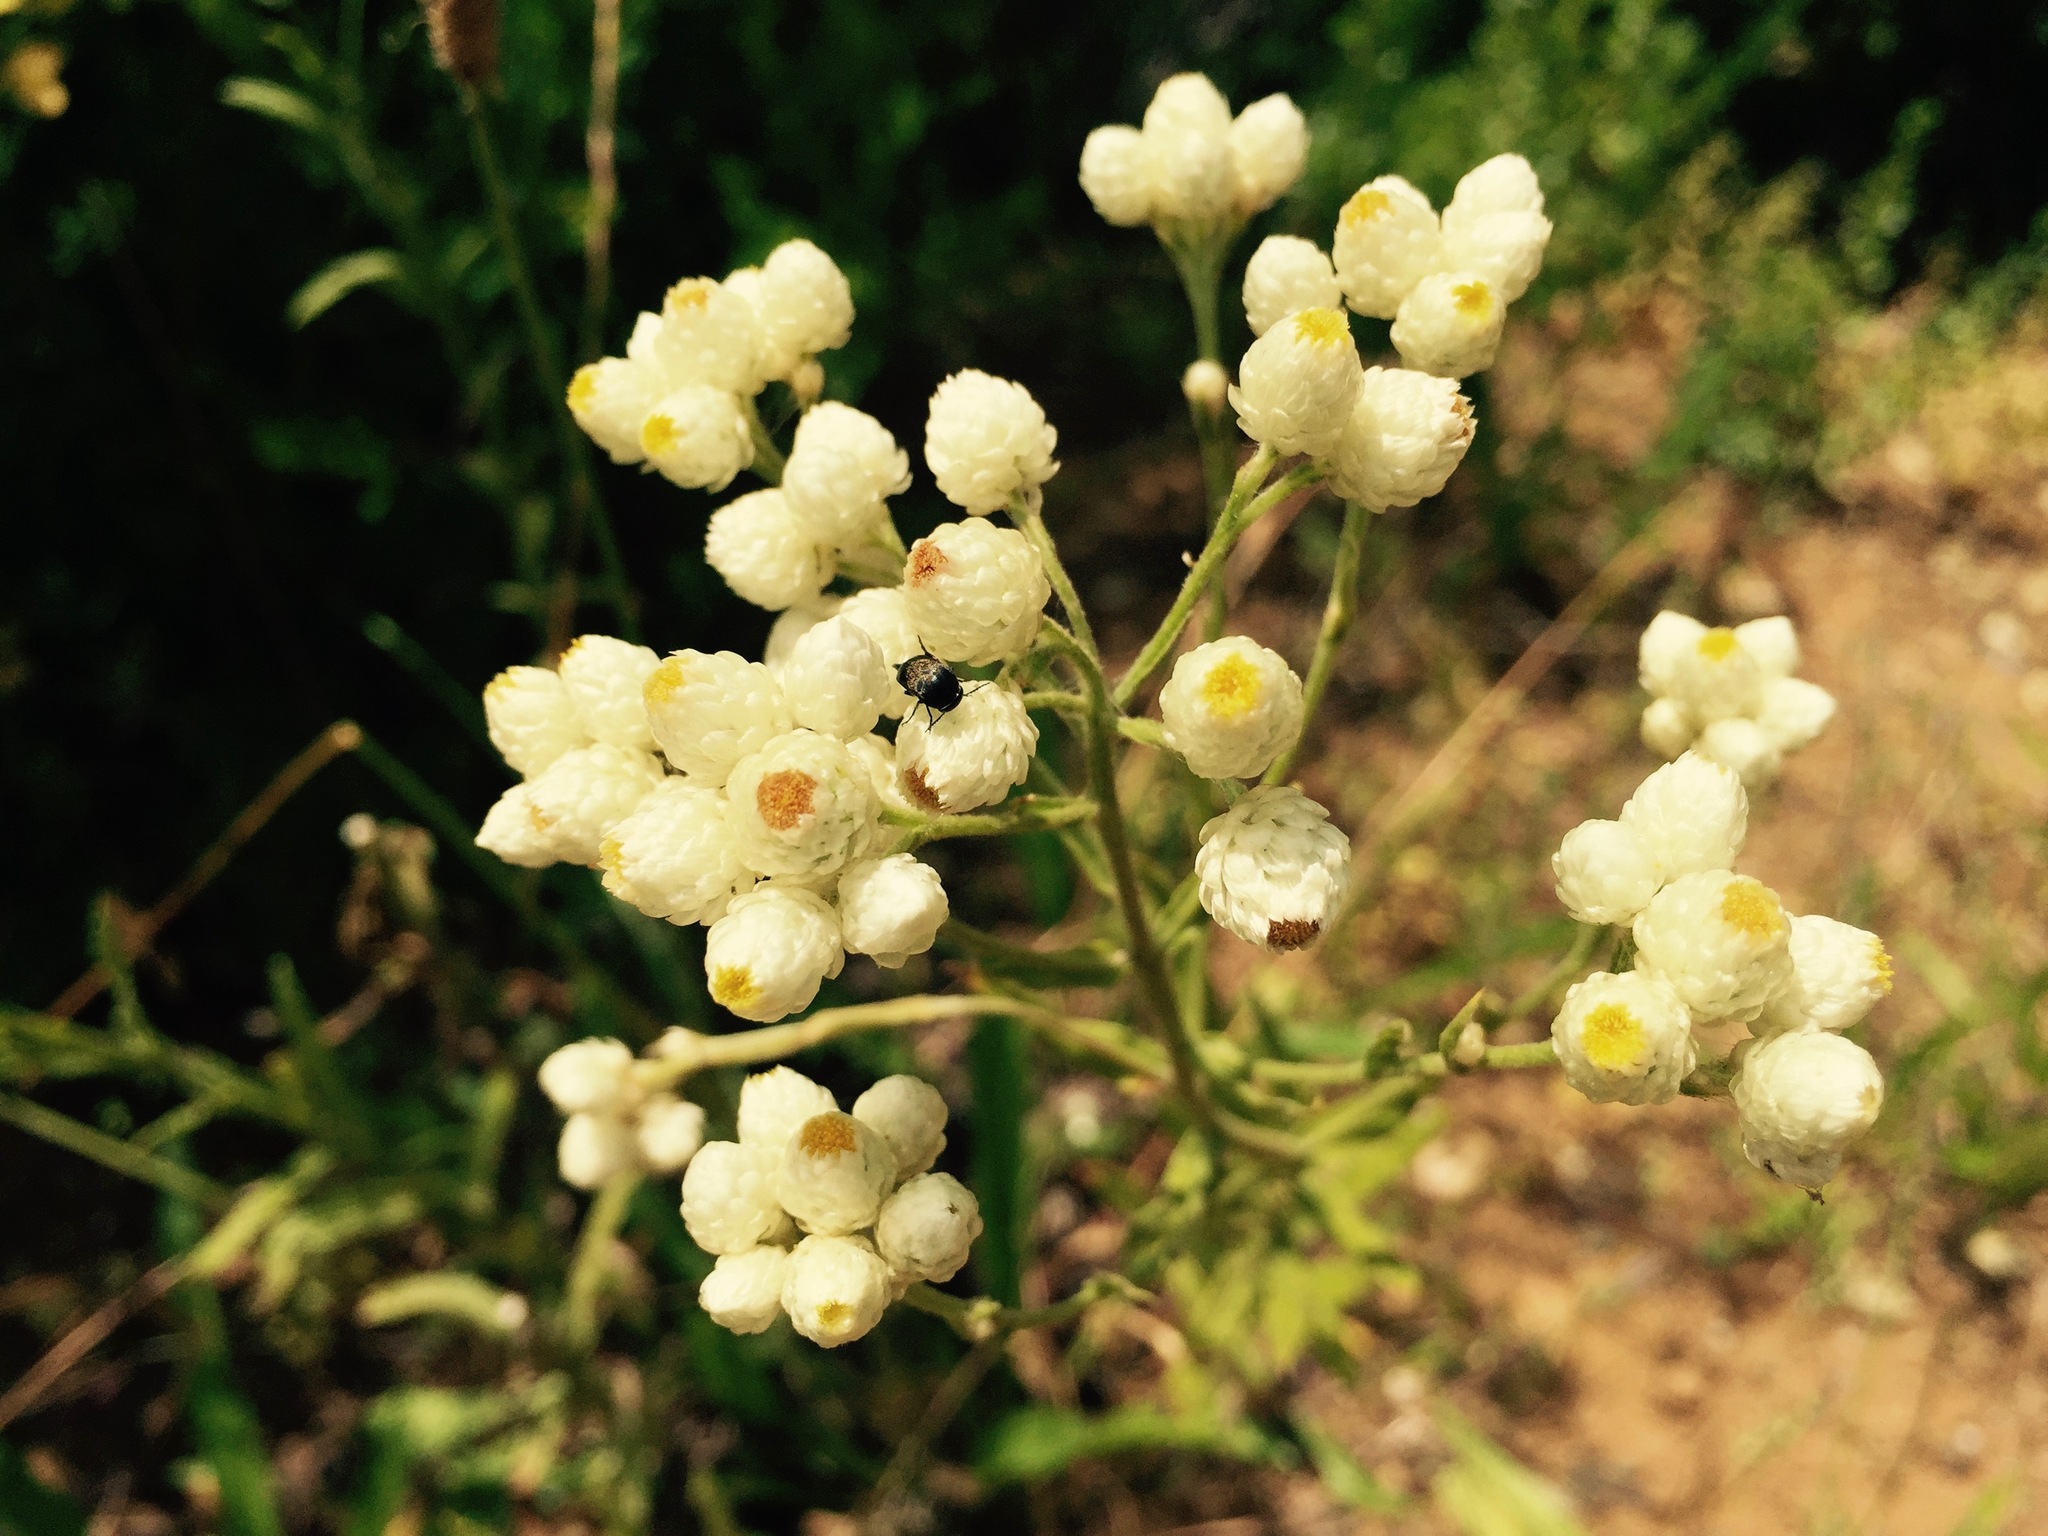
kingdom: Plantae
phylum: Tracheophyta
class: Magnoliopsida
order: Asterales
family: Asteraceae
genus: Pseudognaphalium
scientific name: Pseudognaphalium californicum
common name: California rabbit-tobacco
